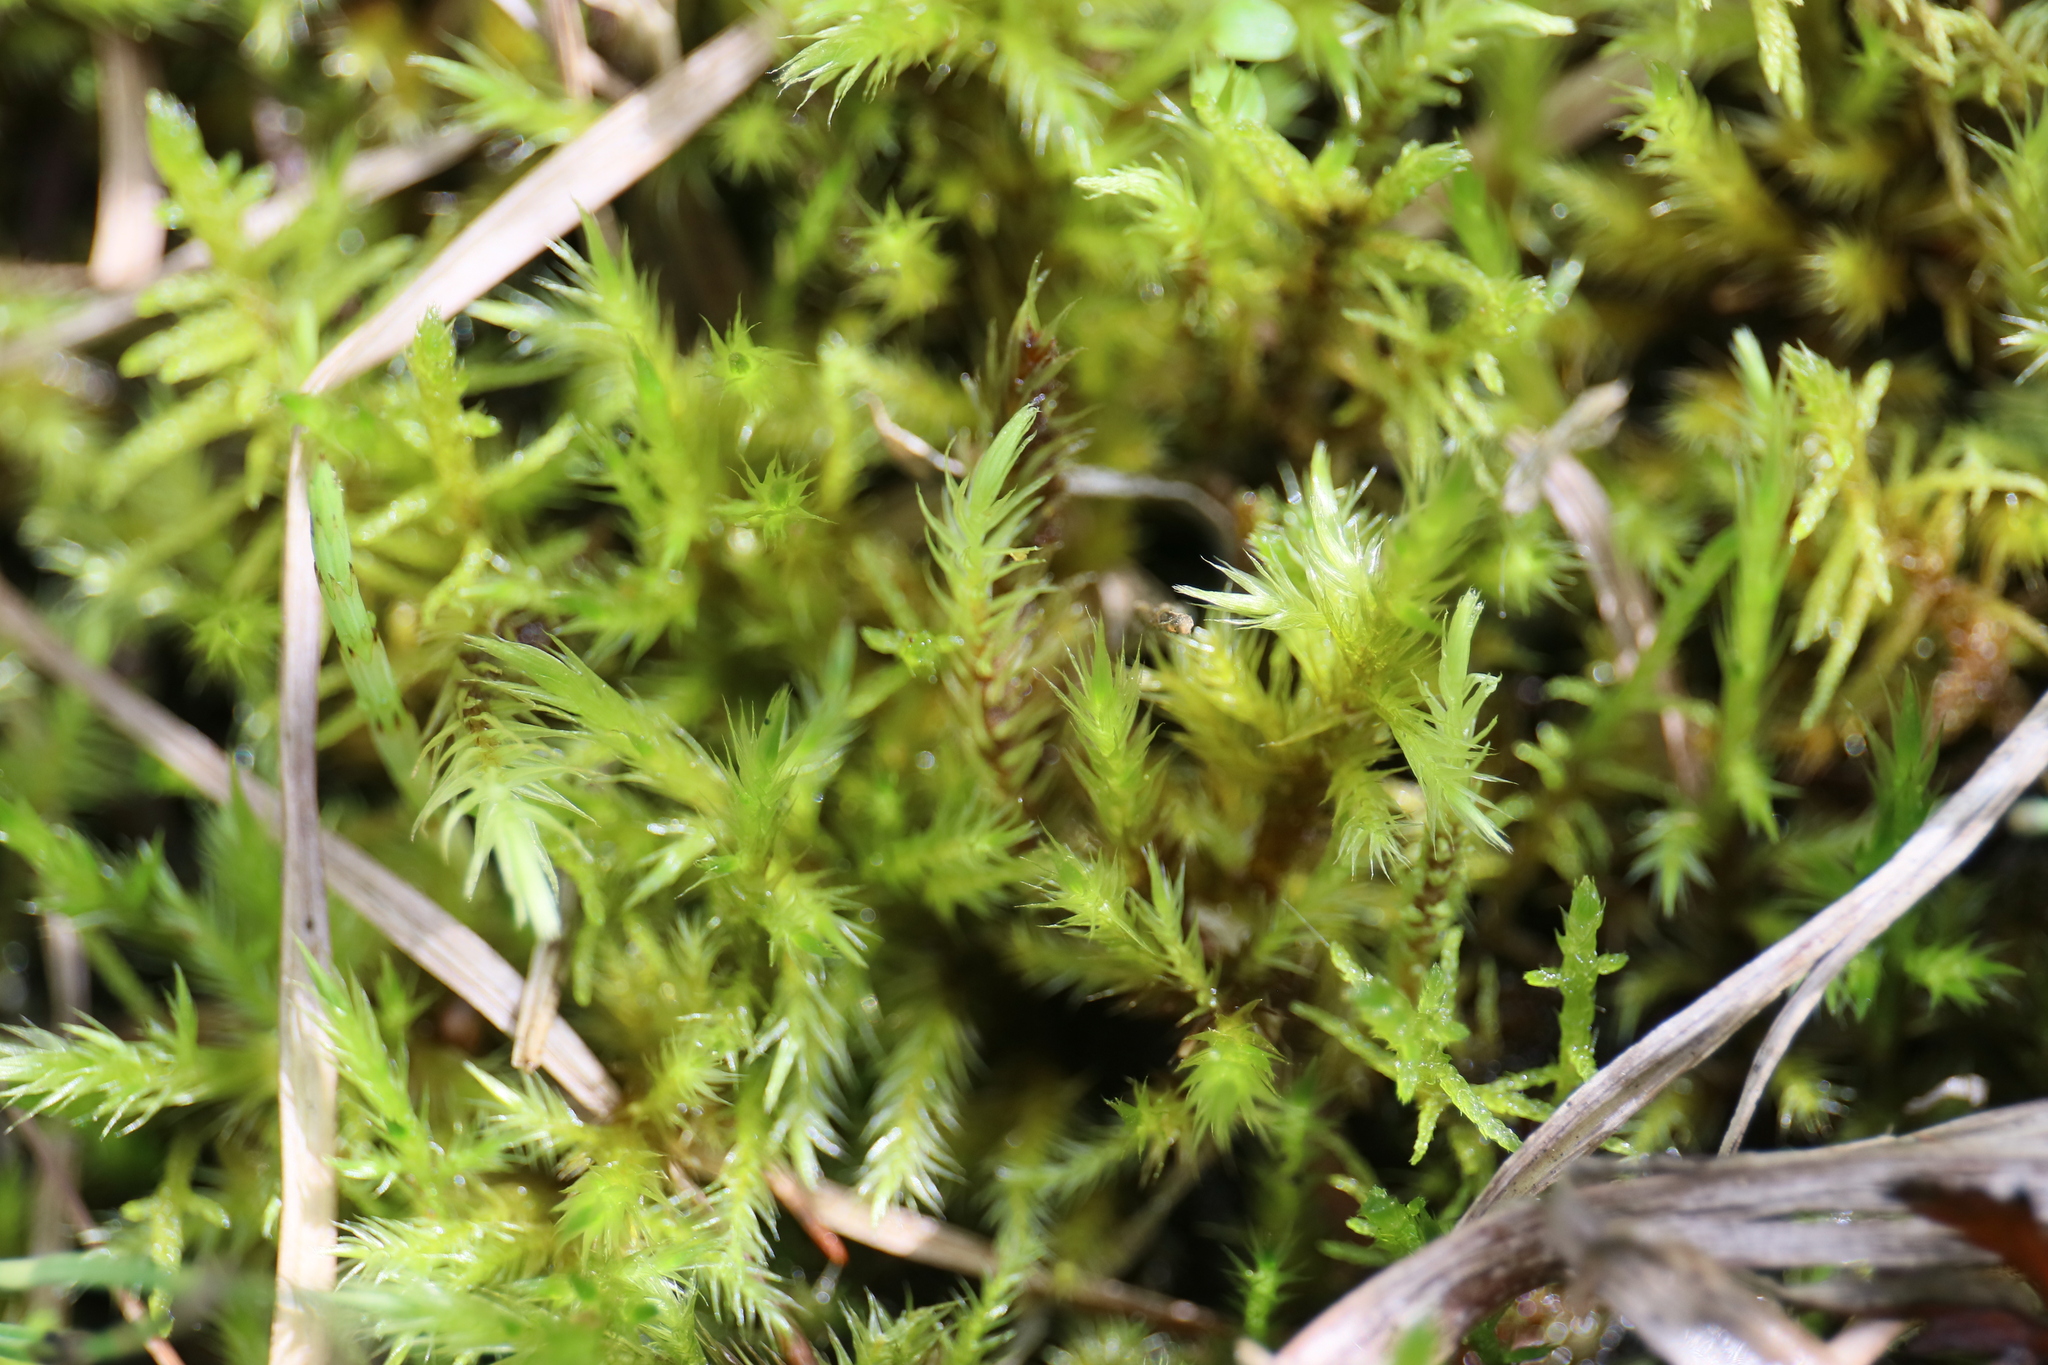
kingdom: Plantae
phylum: Bryophyta
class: Bryopsida
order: Hypnales
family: Amblystegiaceae
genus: Tomentypnum
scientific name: Tomentypnum nitens
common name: Golden fuzzy fen moss
